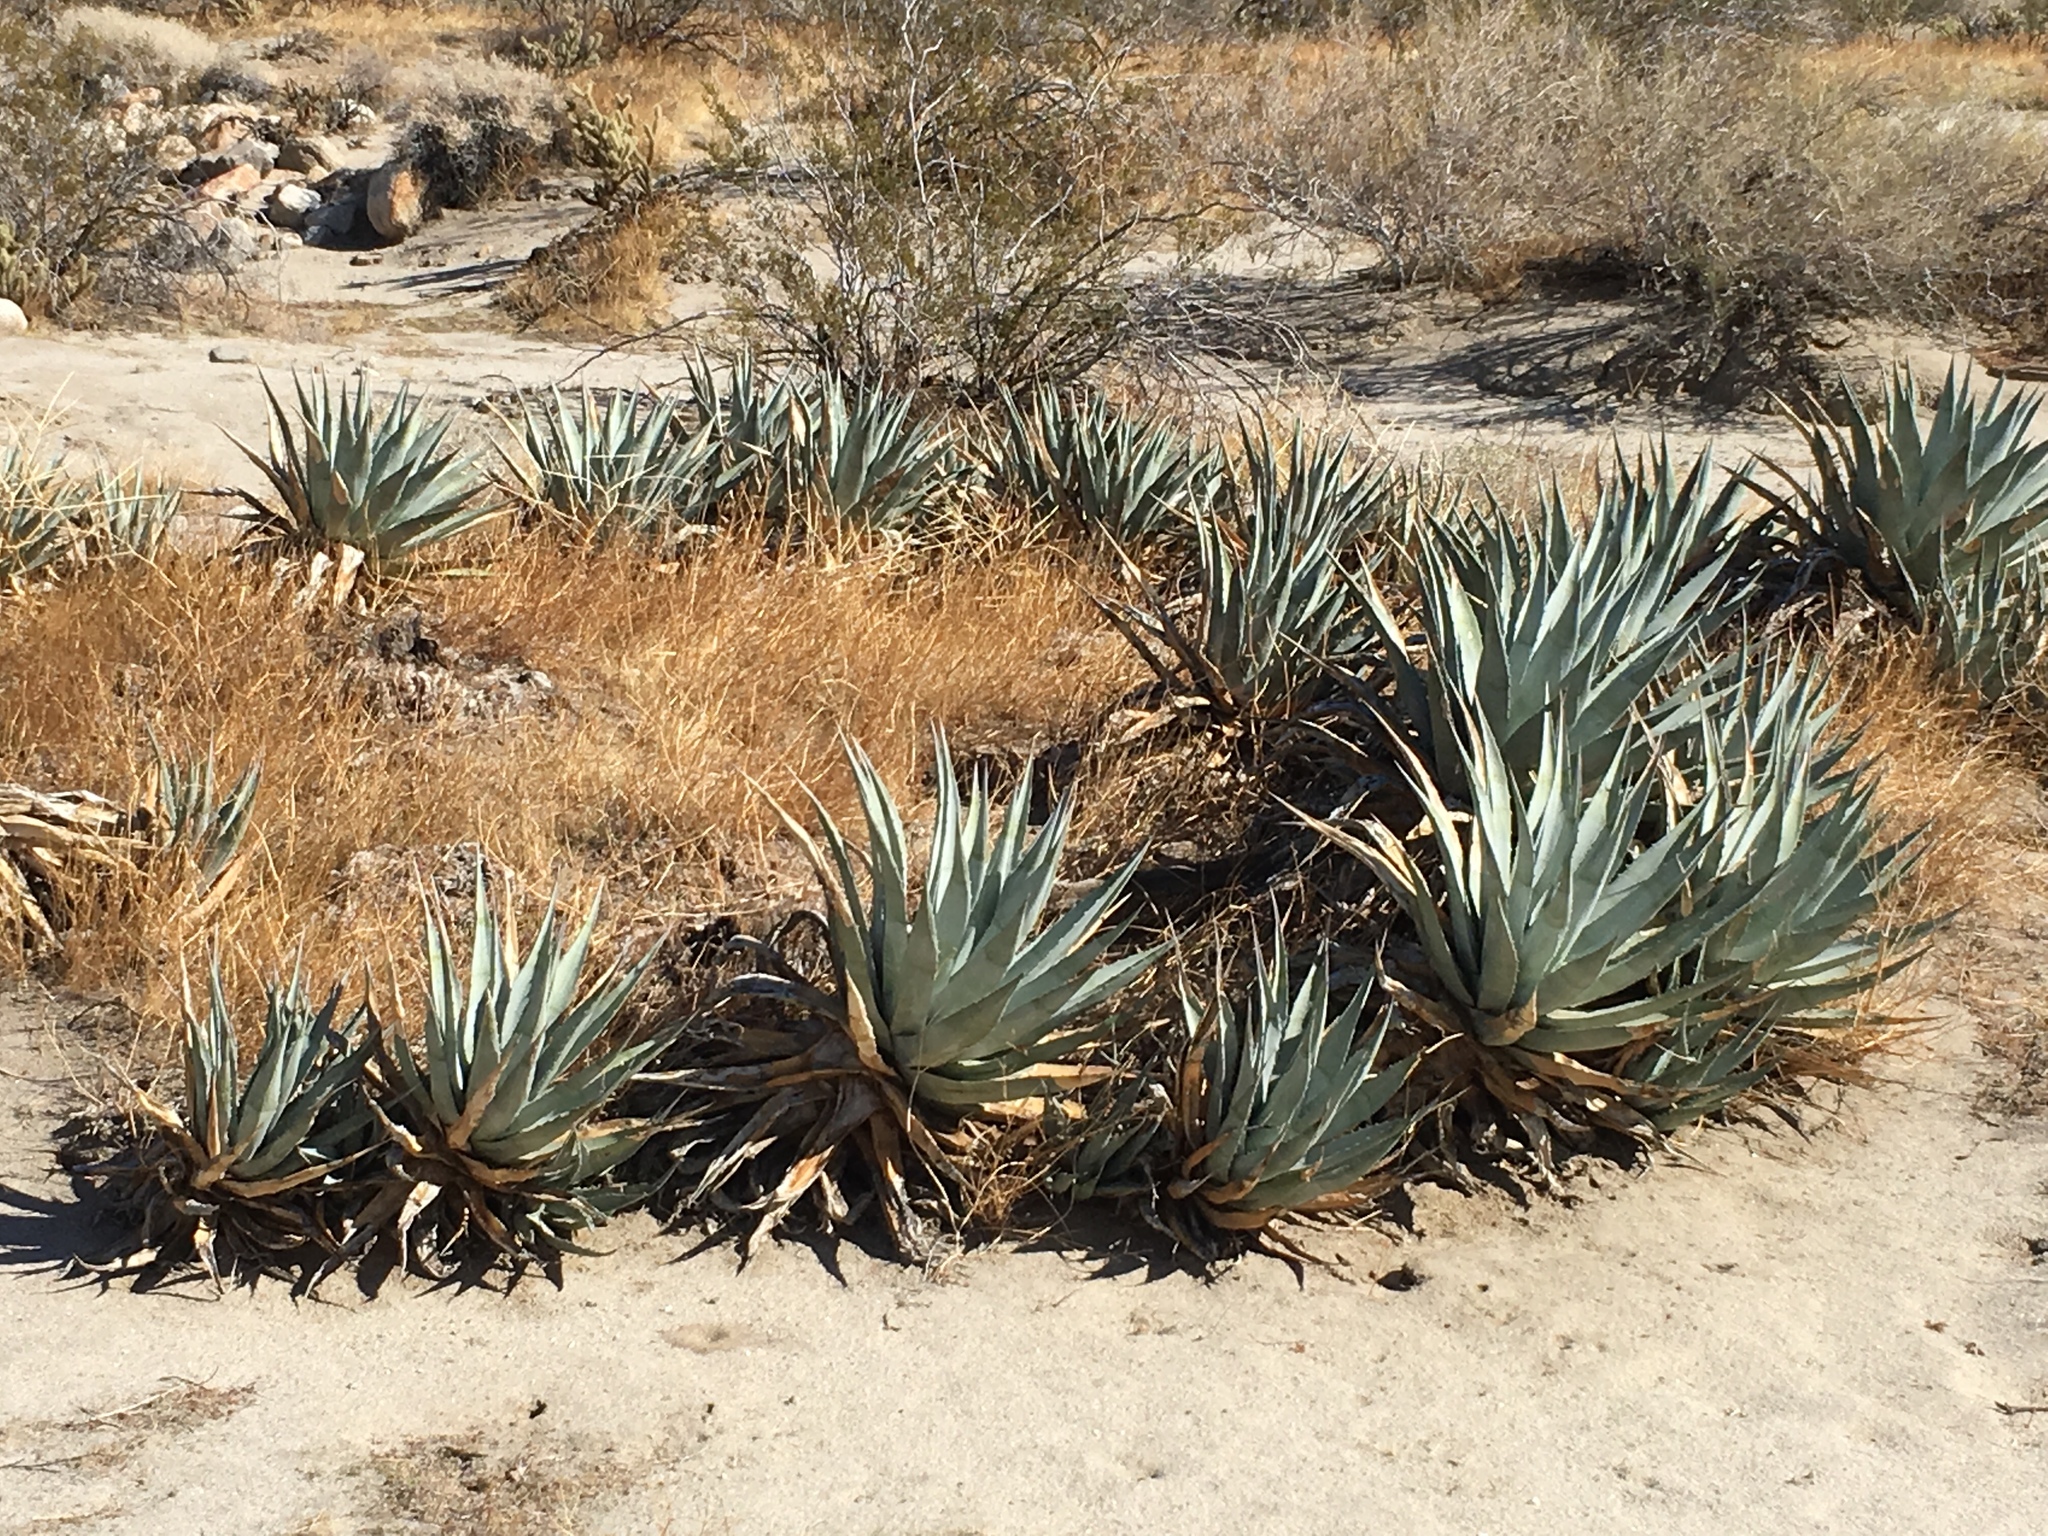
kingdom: Plantae
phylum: Tracheophyta
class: Liliopsida
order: Asparagales
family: Asparagaceae
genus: Agave
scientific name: Agave deserti
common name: Desert agave
